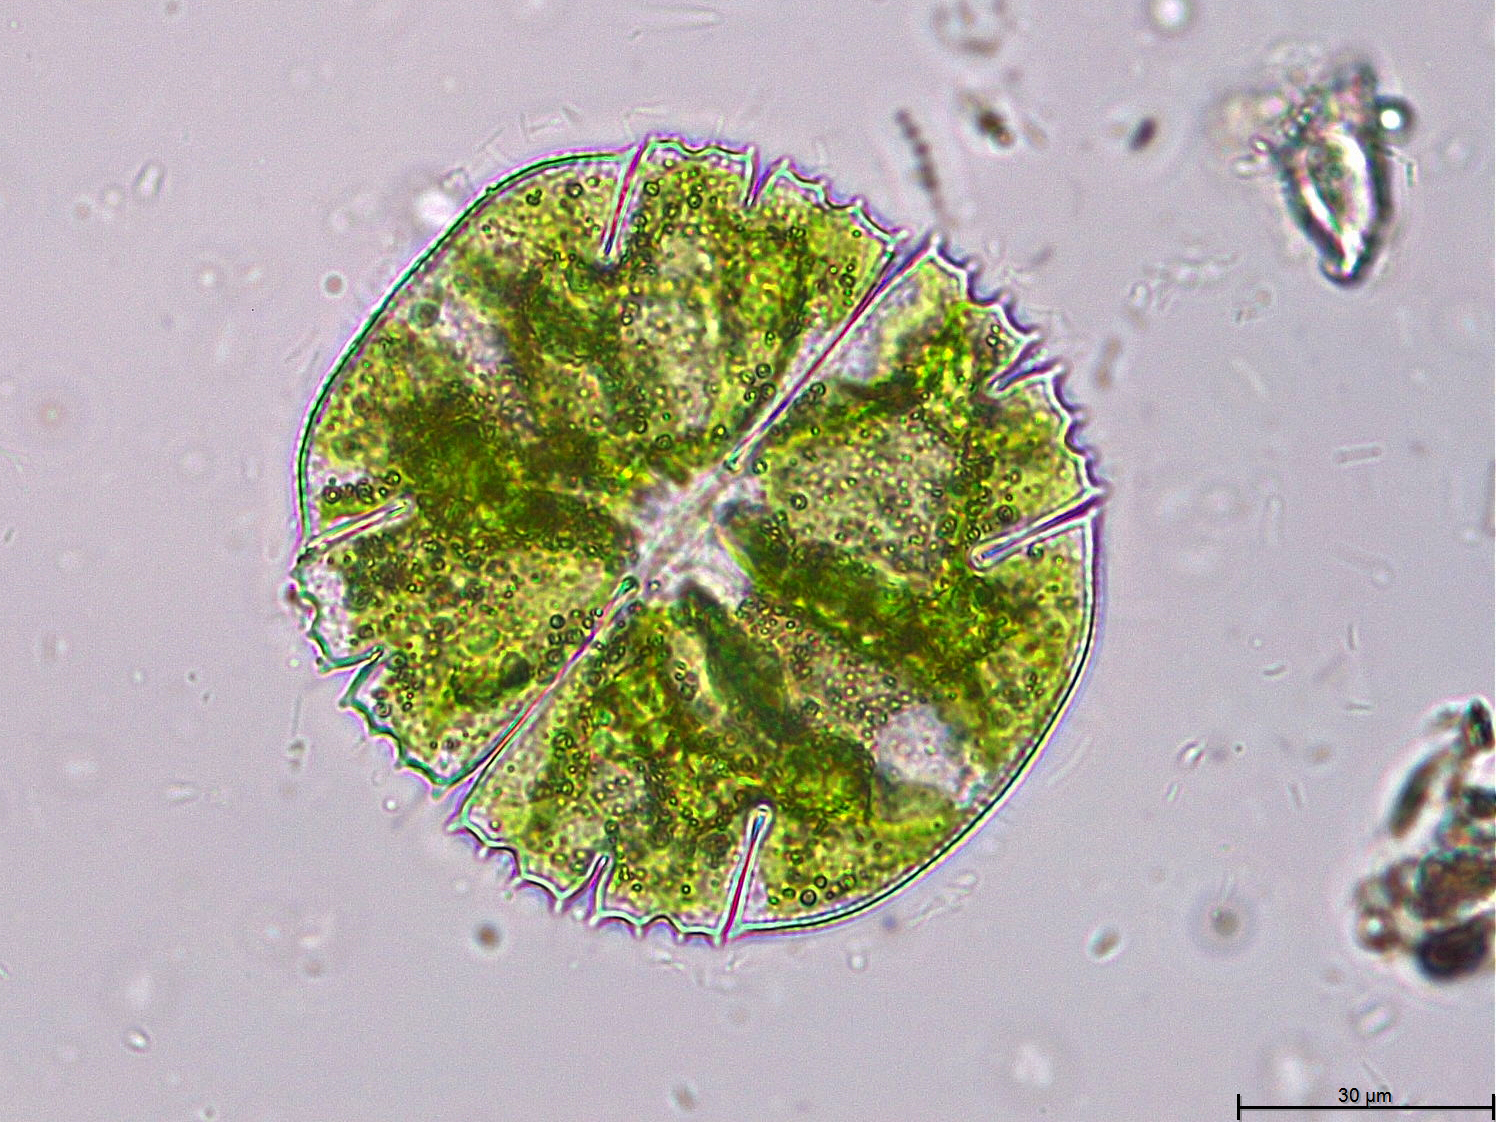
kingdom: Plantae
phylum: Charophyta
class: Conjugatophyceae
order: Desmidiales
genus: Micrasterias
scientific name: Micrasterias truncata
